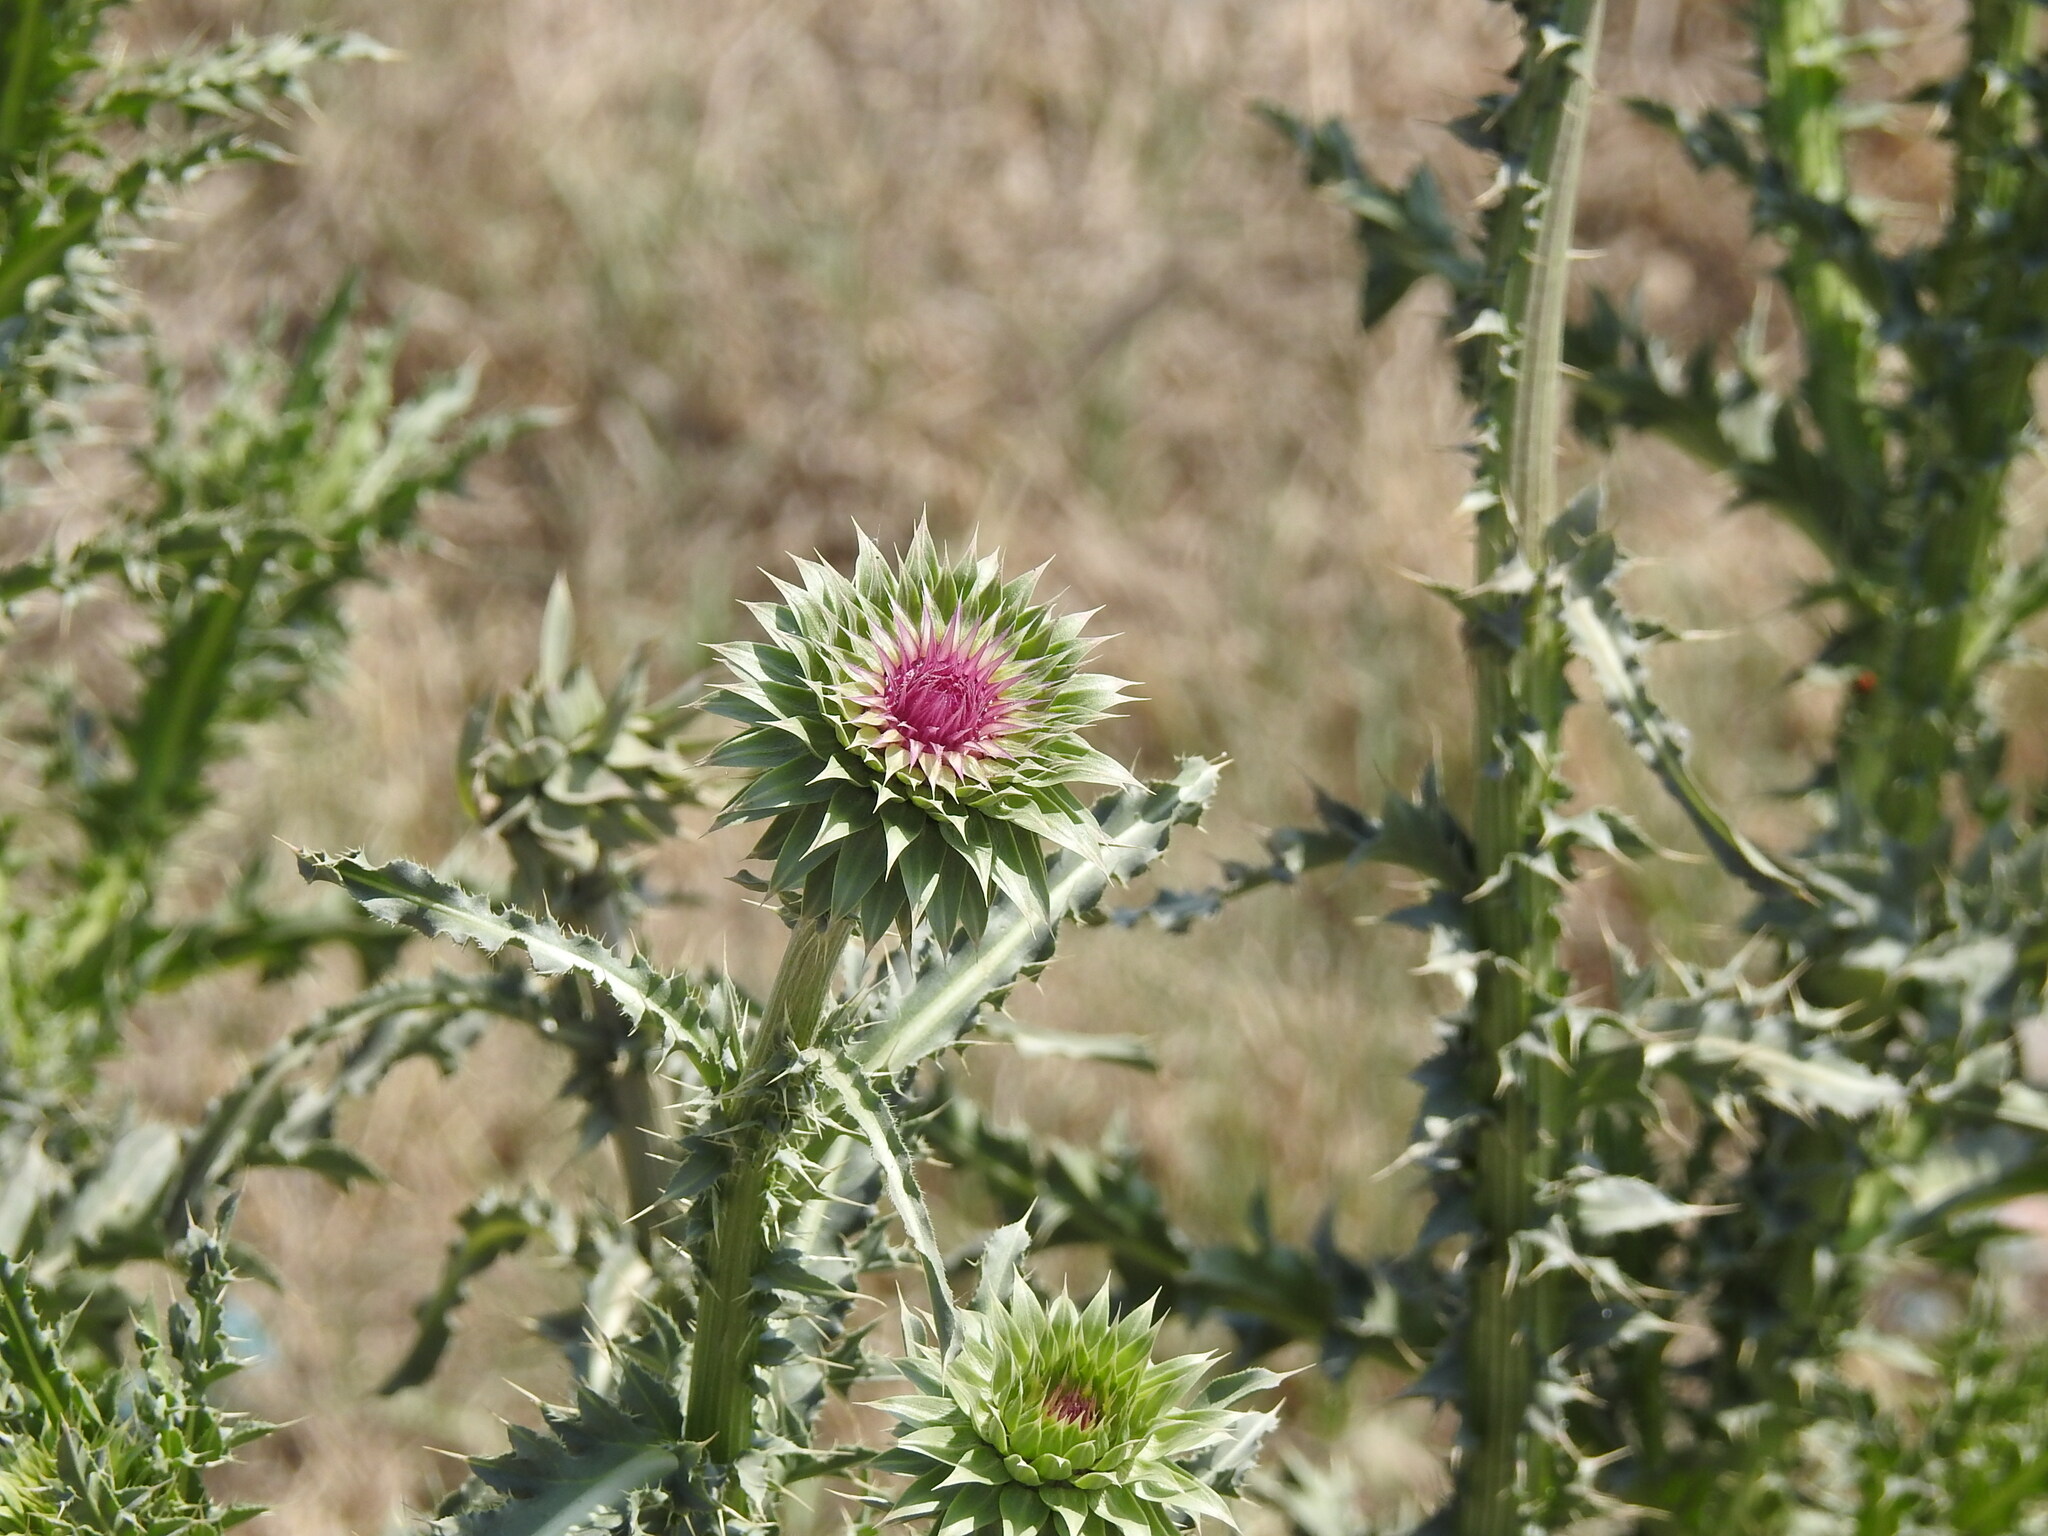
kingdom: Plantae
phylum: Tracheophyta
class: Magnoliopsida
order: Asterales
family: Asteraceae
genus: Carduus
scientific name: Carduus nutans
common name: Musk thistle
